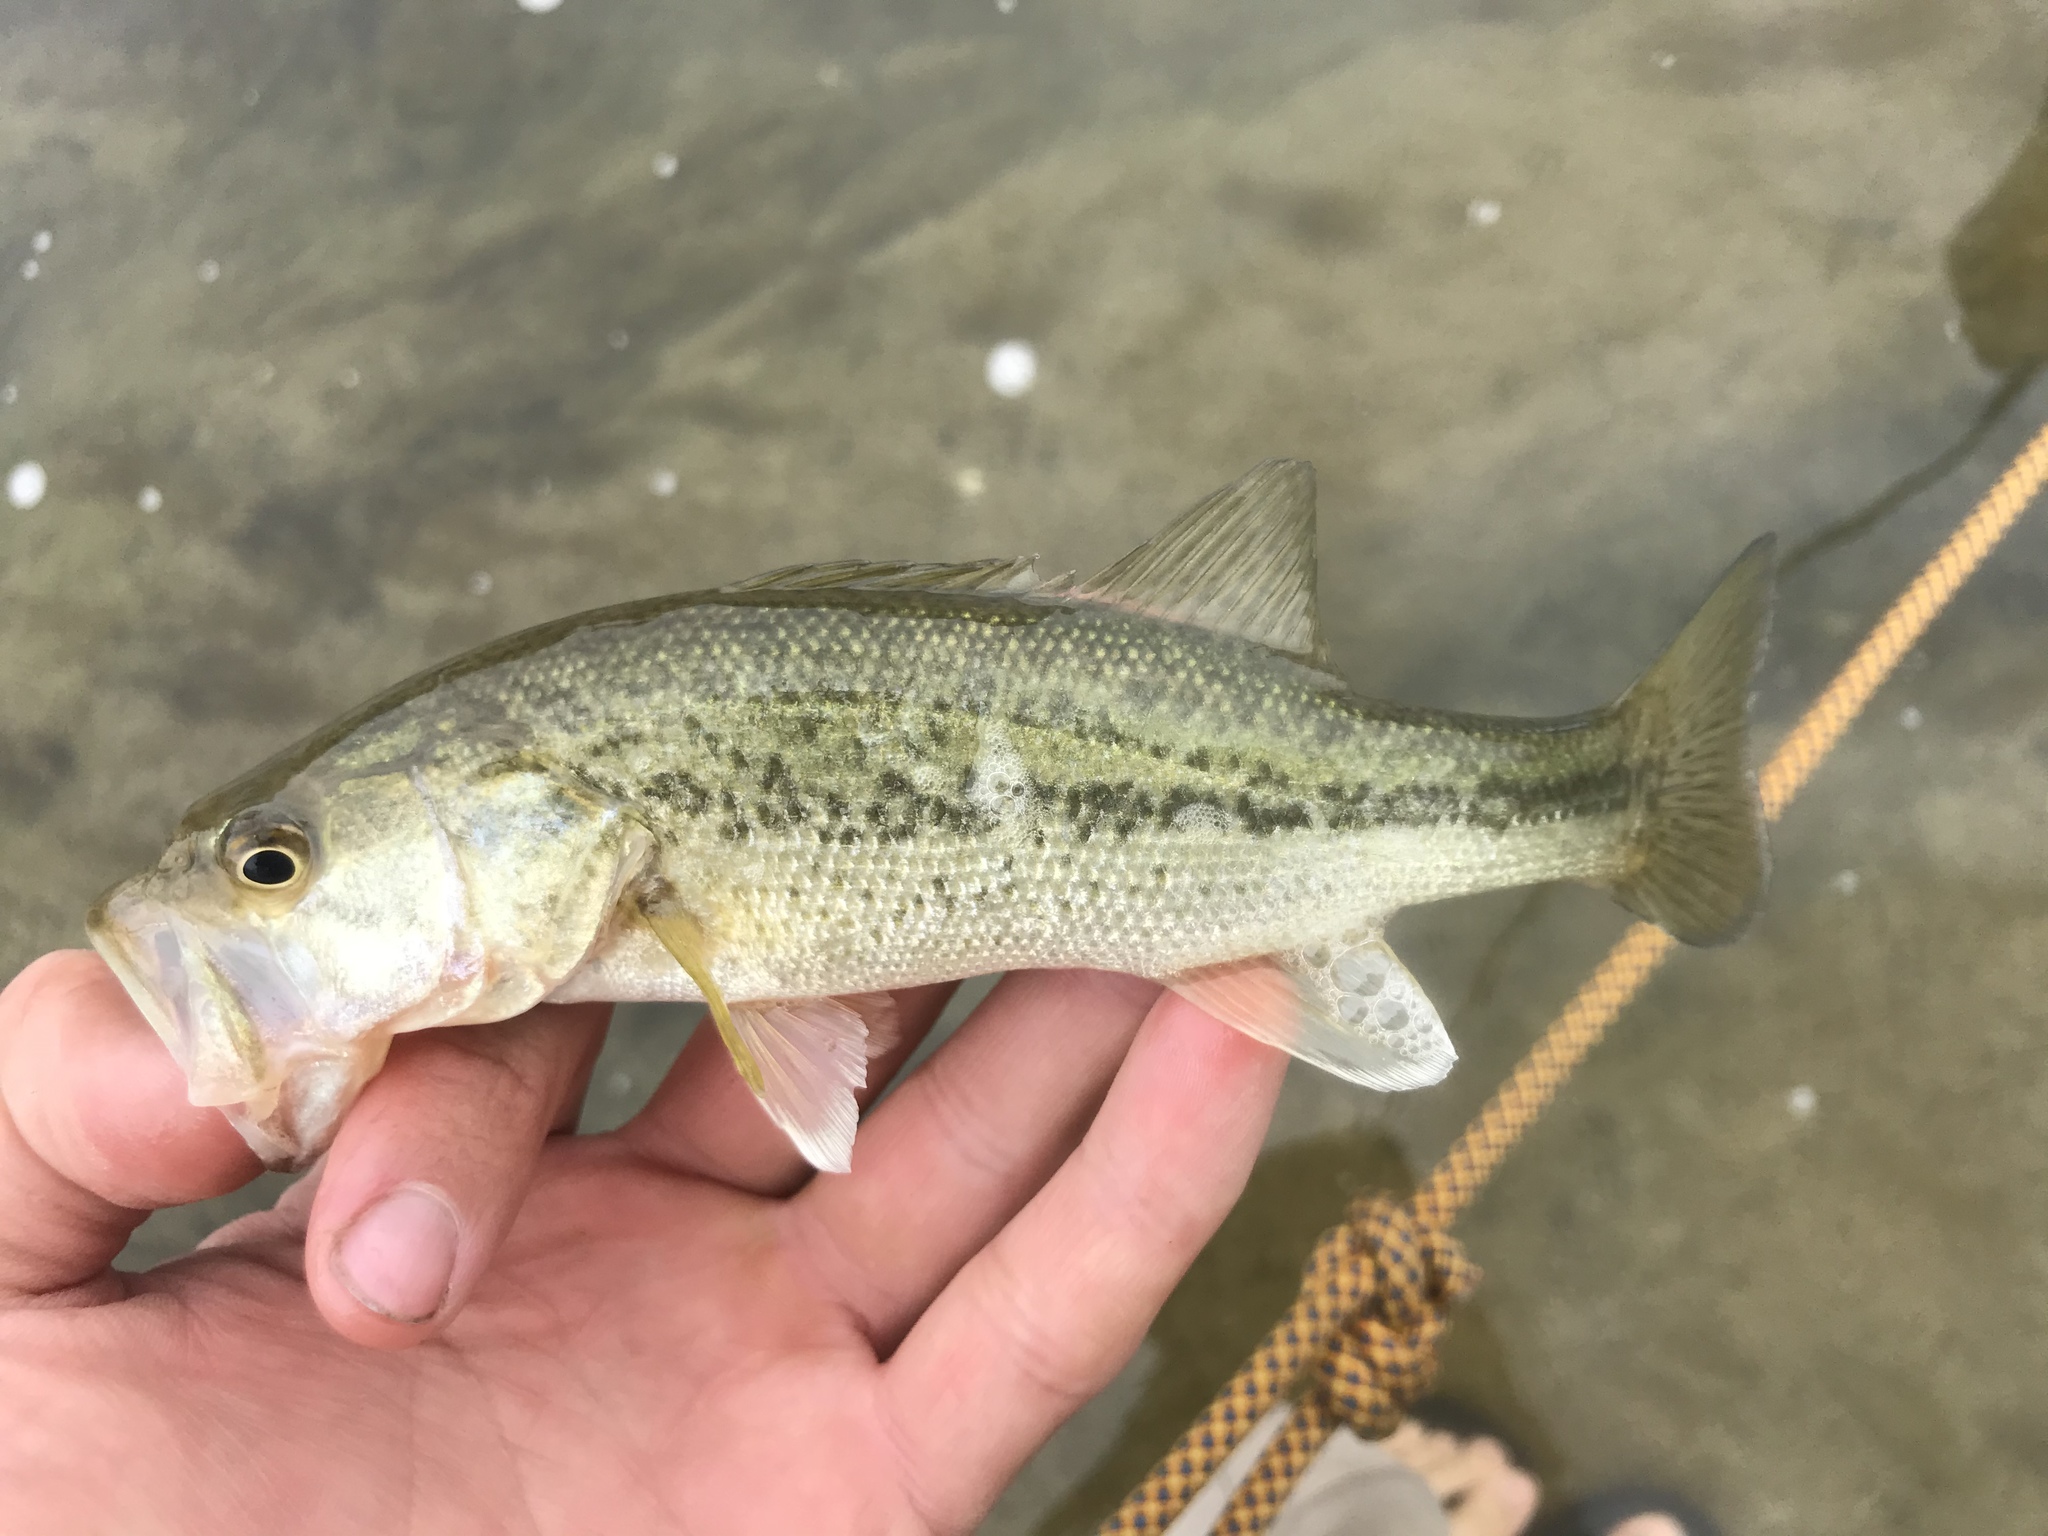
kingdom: Animalia
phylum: Chordata
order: Perciformes
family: Centrarchidae
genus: Micropterus
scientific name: Micropterus
